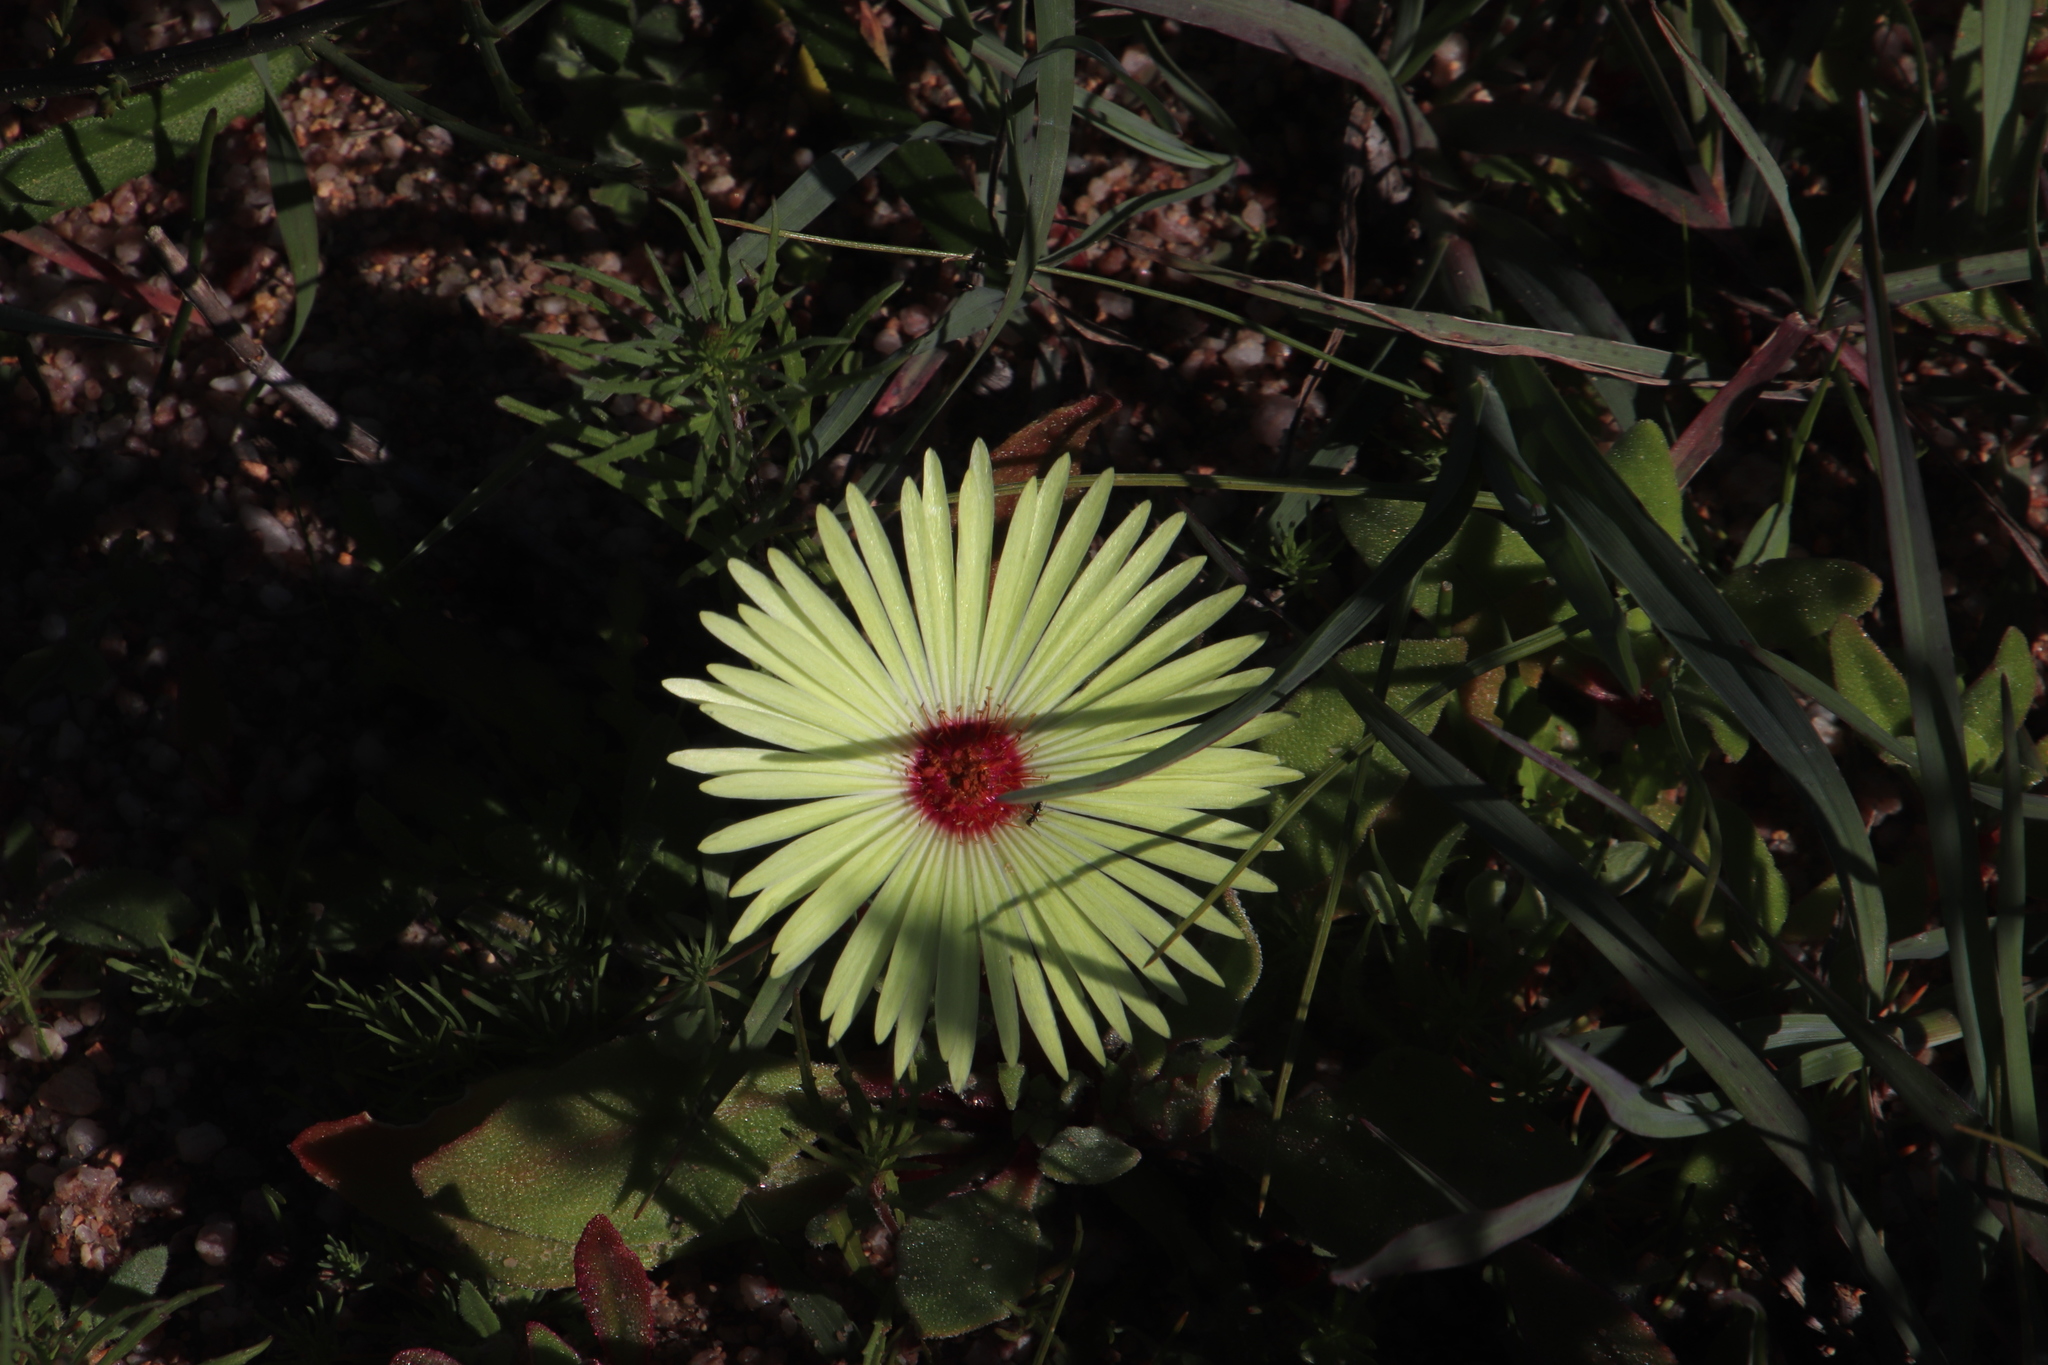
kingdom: Plantae
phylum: Tracheophyta
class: Magnoliopsida
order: Caryophyllales
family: Aizoaceae
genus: Cleretum
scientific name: Cleretum bellidiforme
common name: Livingstone daisy
